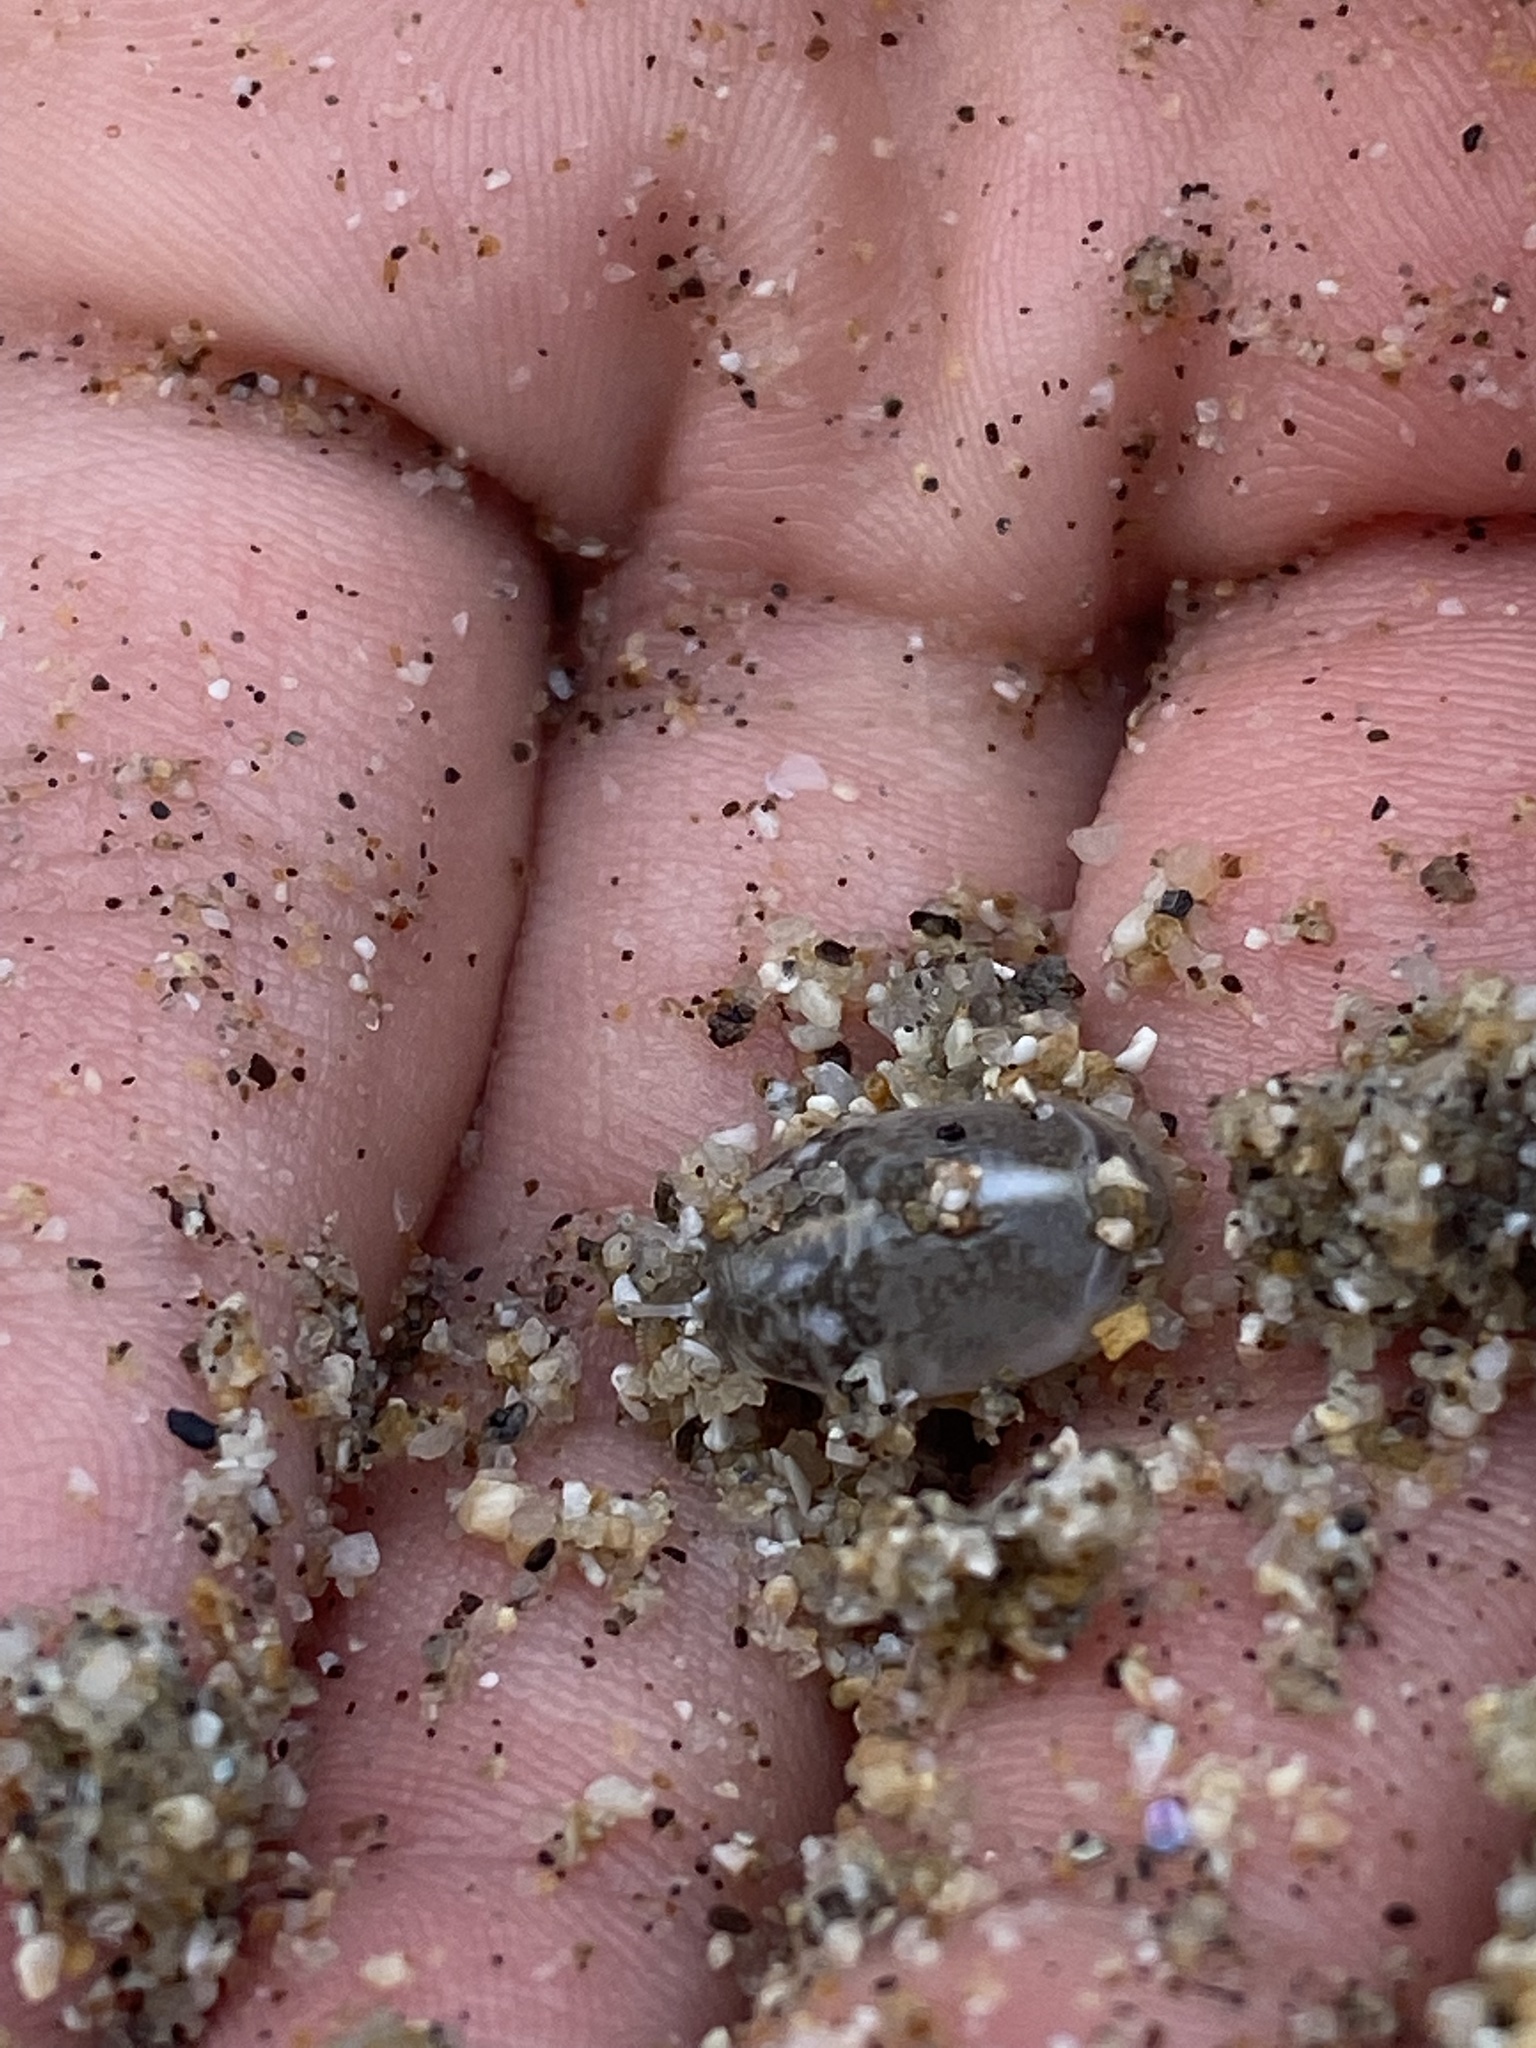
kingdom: Animalia
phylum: Arthropoda
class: Malacostraca
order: Decapoda
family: Hippidae
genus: Emerita
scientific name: Emerita analoga
